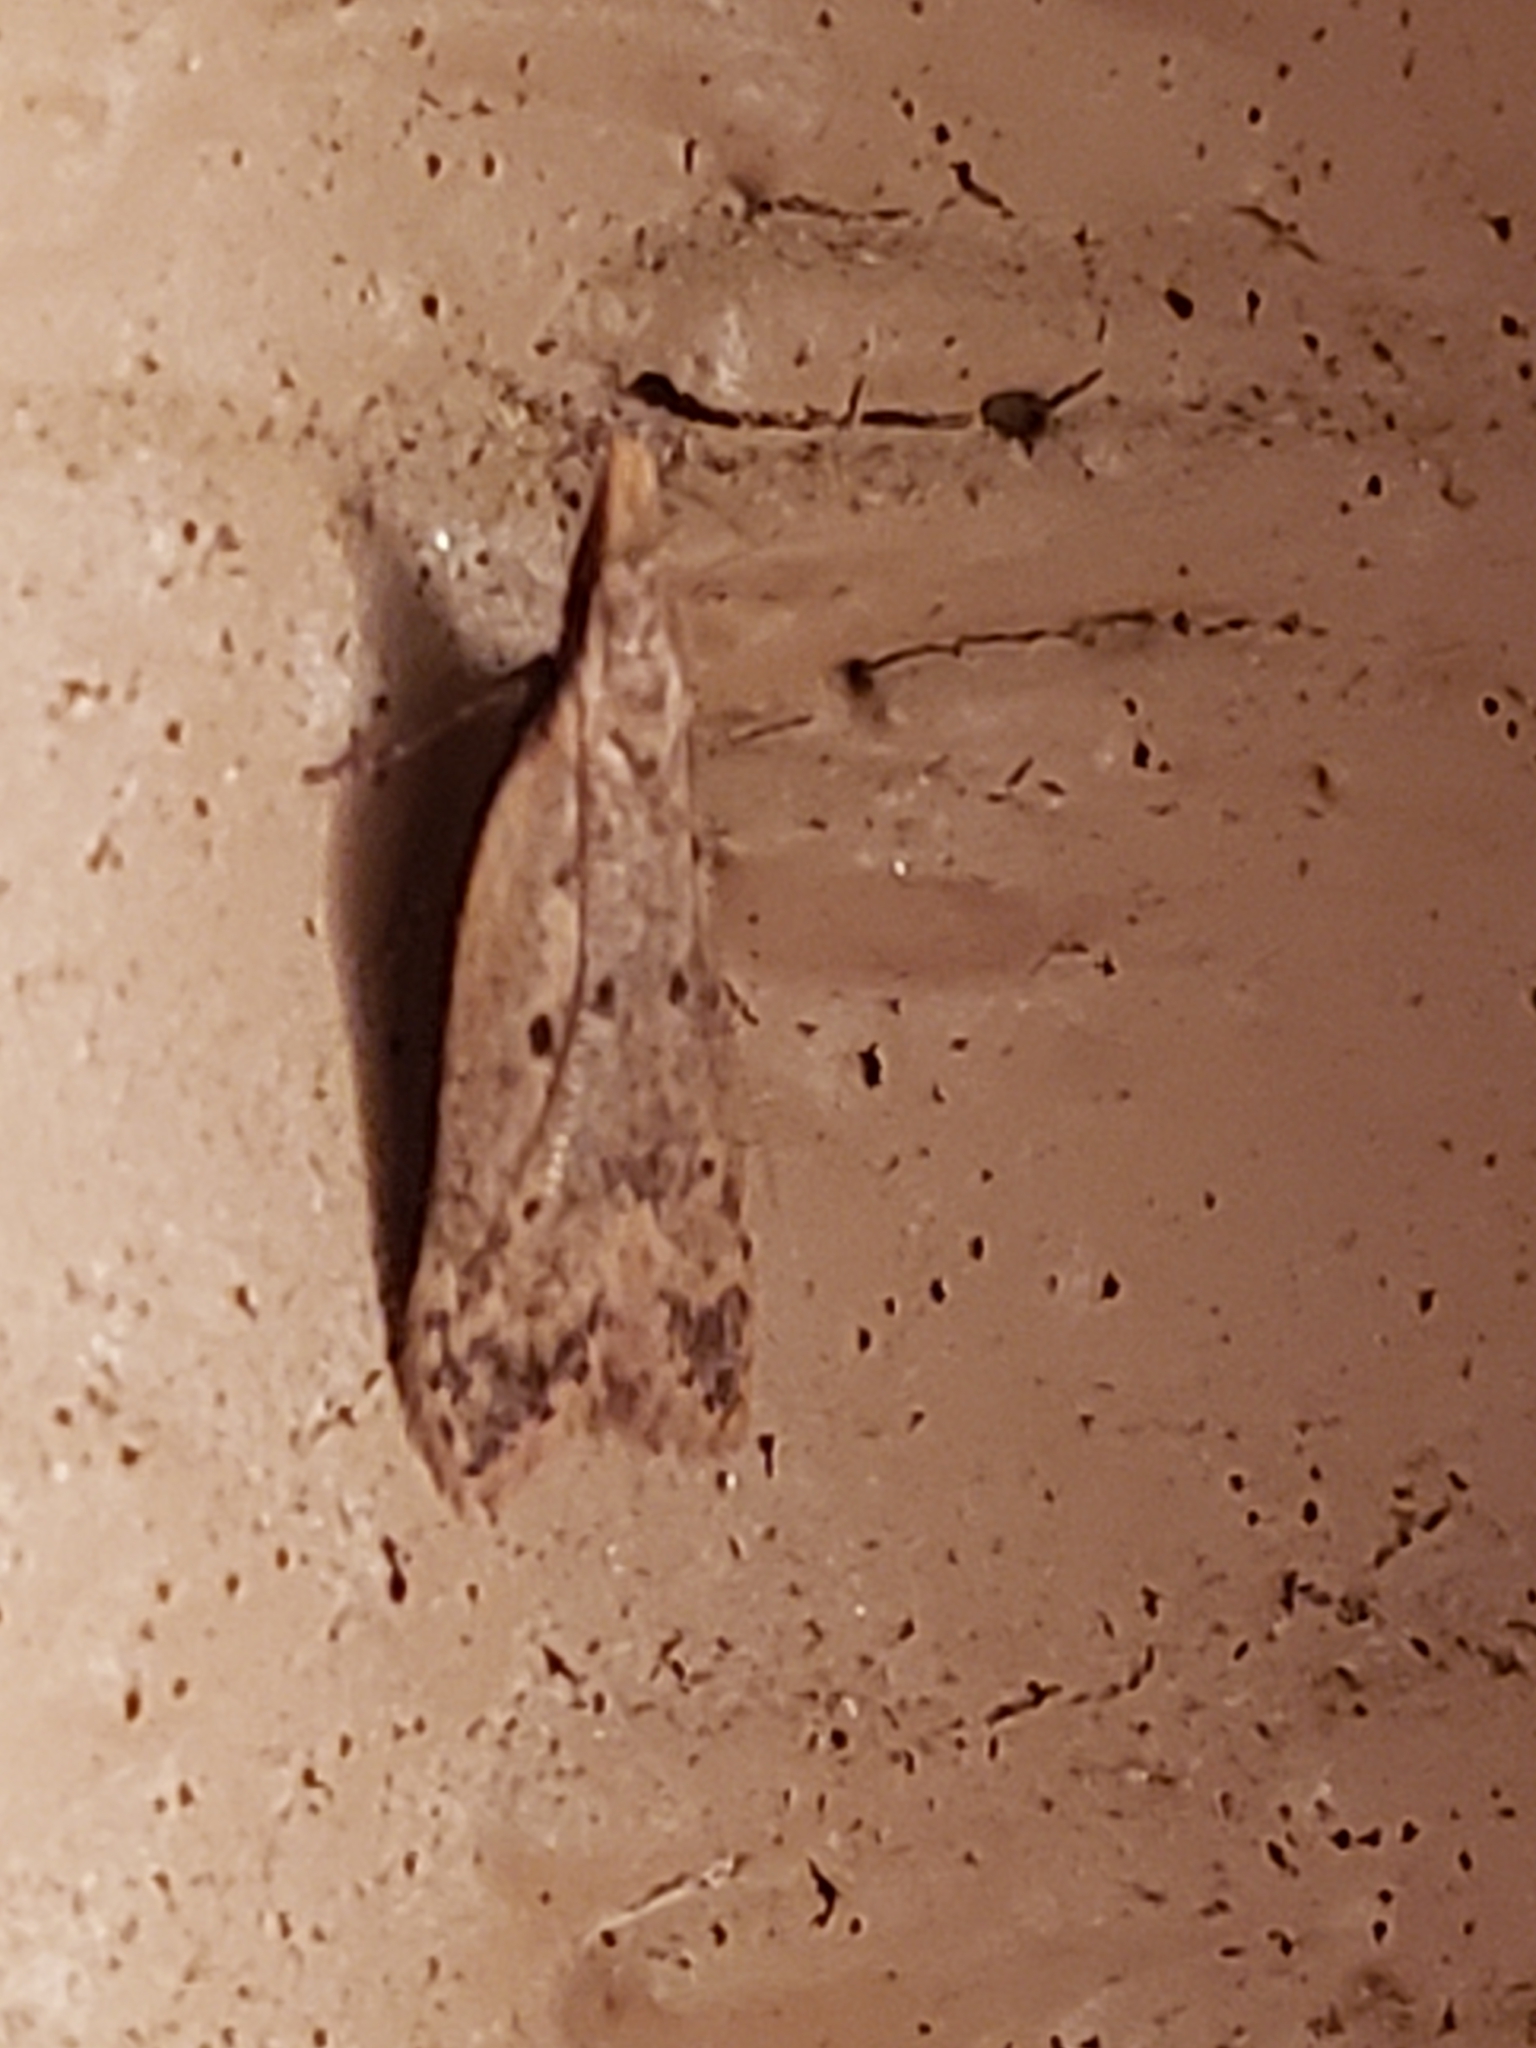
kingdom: Animalia
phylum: Arthropoda
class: Insecta
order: Lepidoptera
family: Gelechiidae
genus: Dichomeris
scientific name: Dichomeris punctipennella
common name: Many-spotted dichomeris moth
